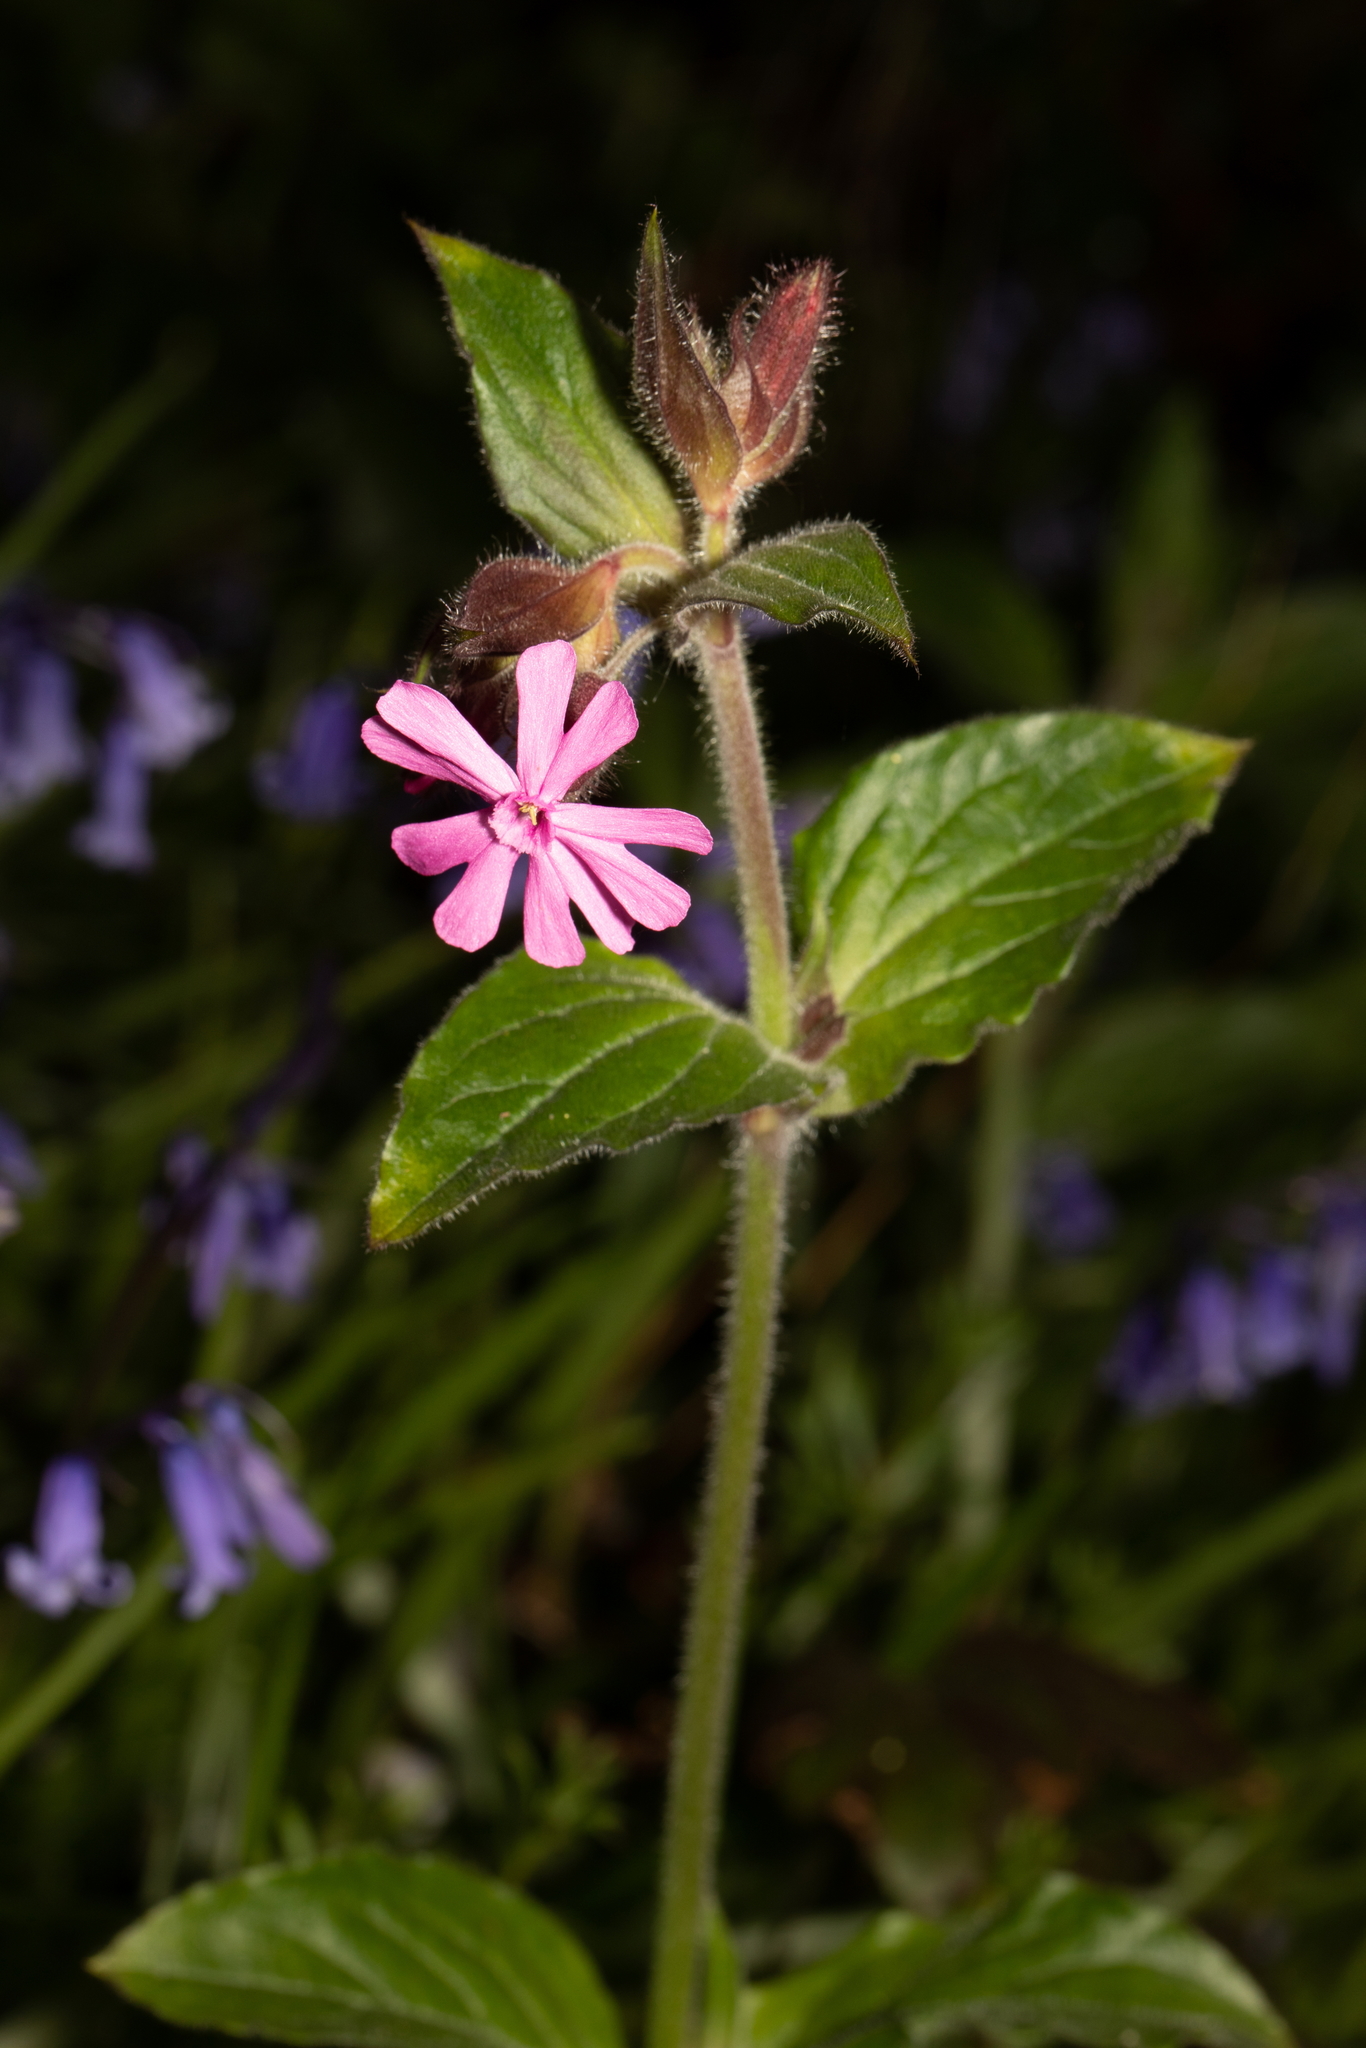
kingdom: Plantae
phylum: Tracheophyta
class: Magnoliopsida
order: Caryophyllales
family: Caryophyllaceae
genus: Silene
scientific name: Silene dioica
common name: Red campion
